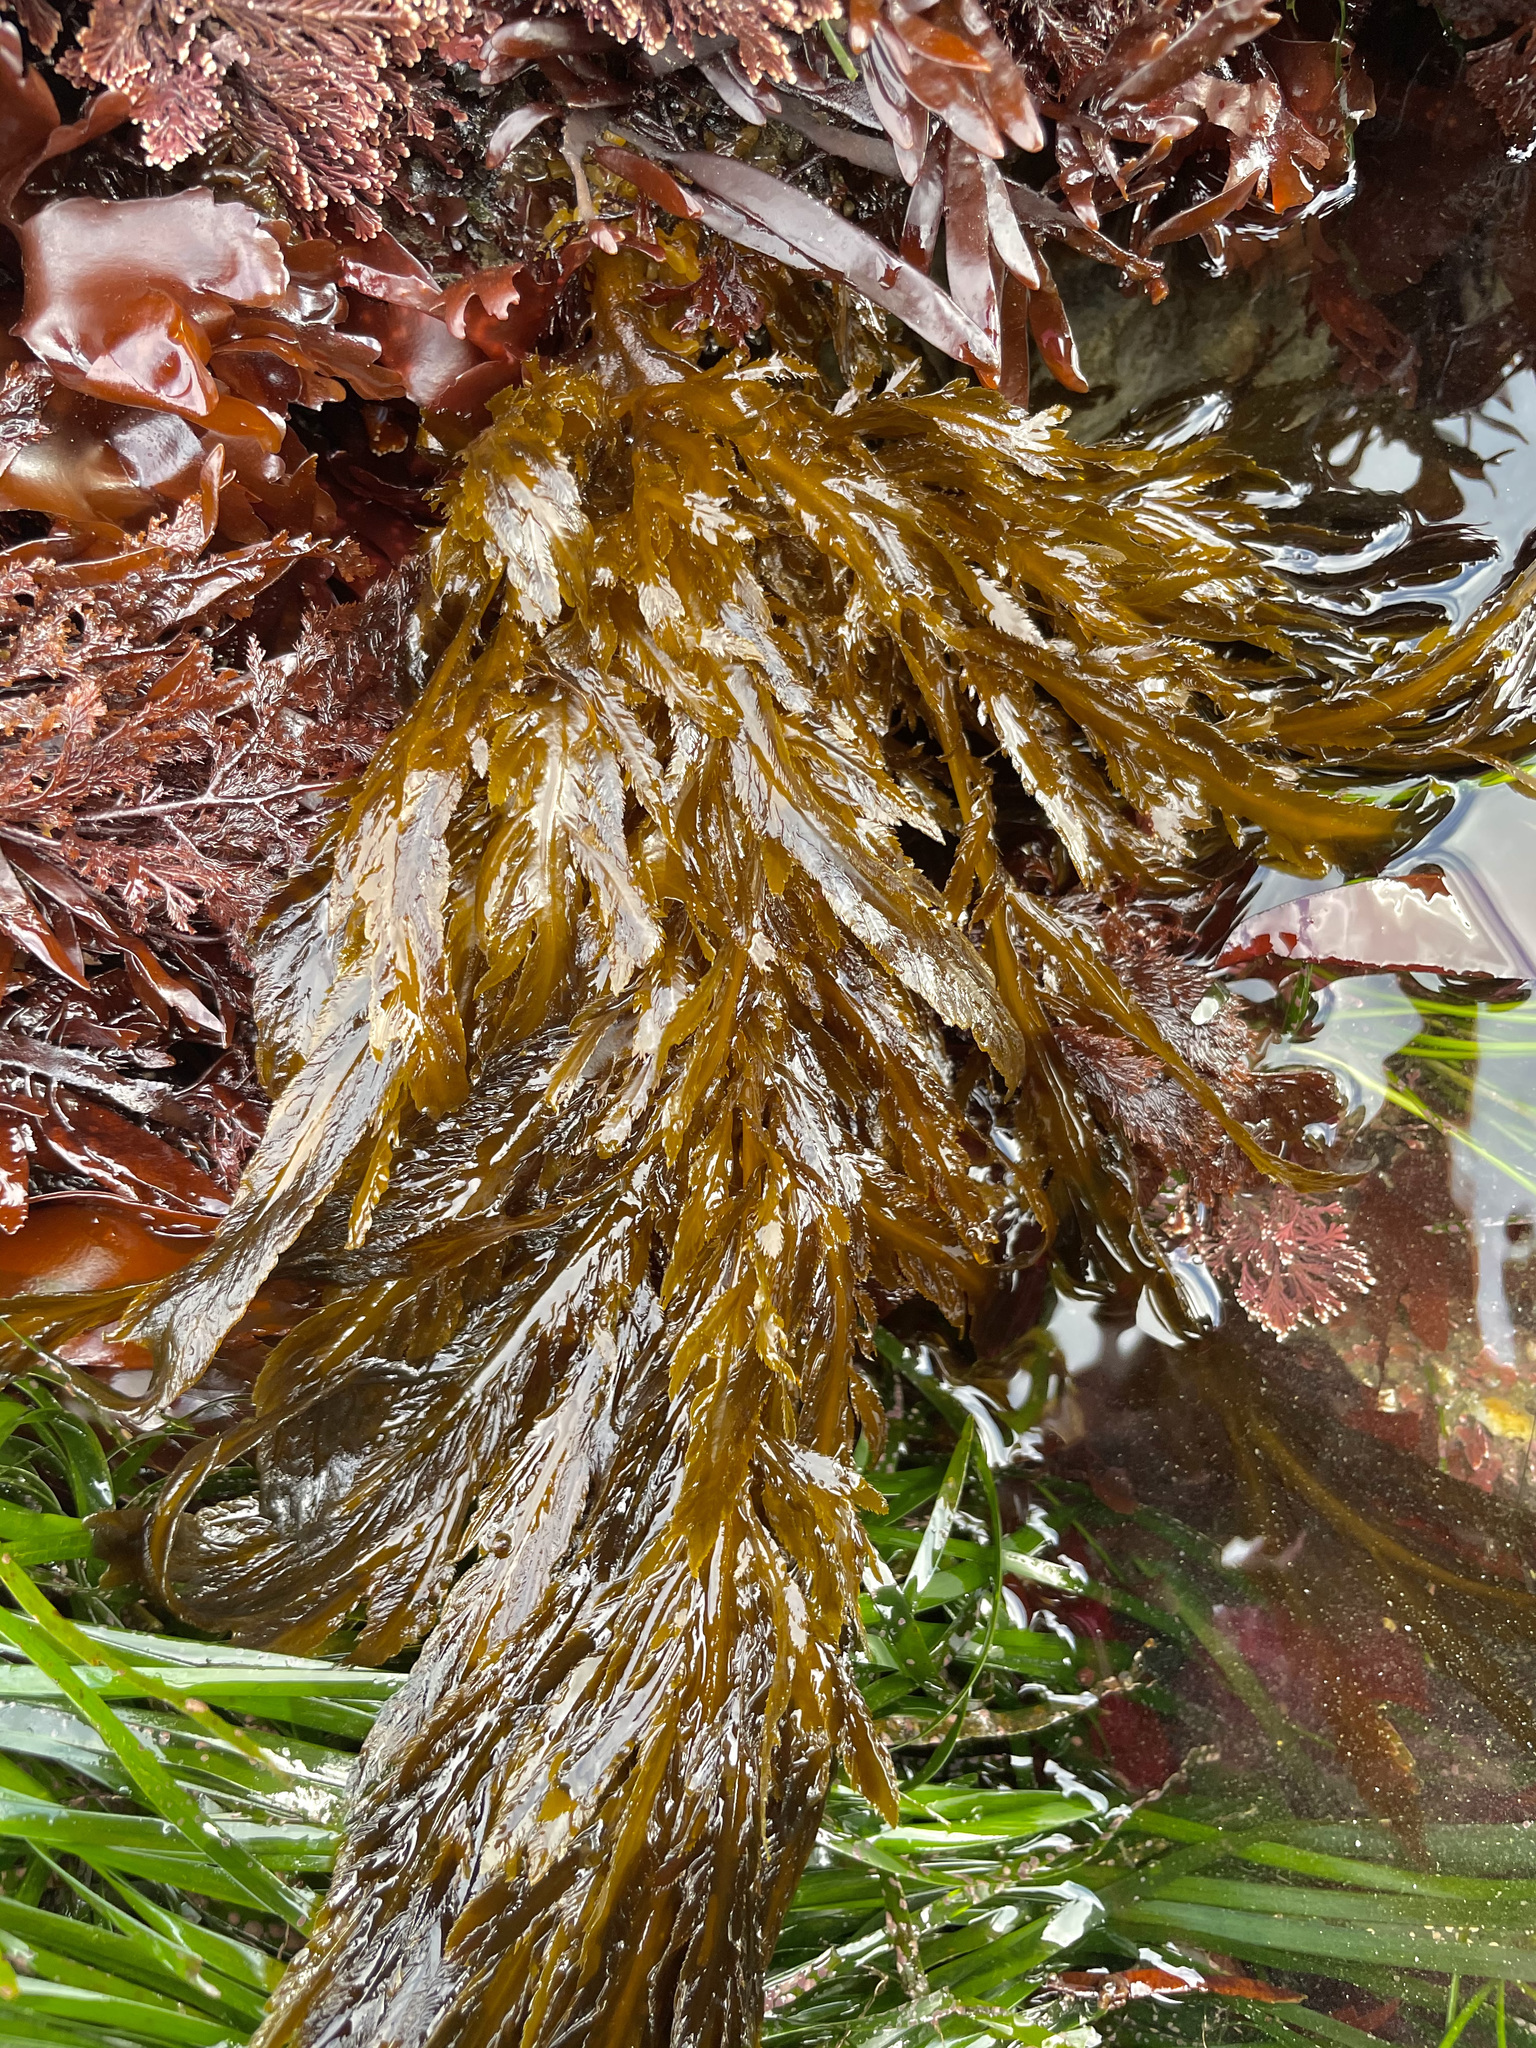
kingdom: Chromista
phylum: Ochrophyta
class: Phaeophyceae
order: Desmarestiales
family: Desmarestiaceae
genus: Desmarestia
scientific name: Desmarestia ligulata
